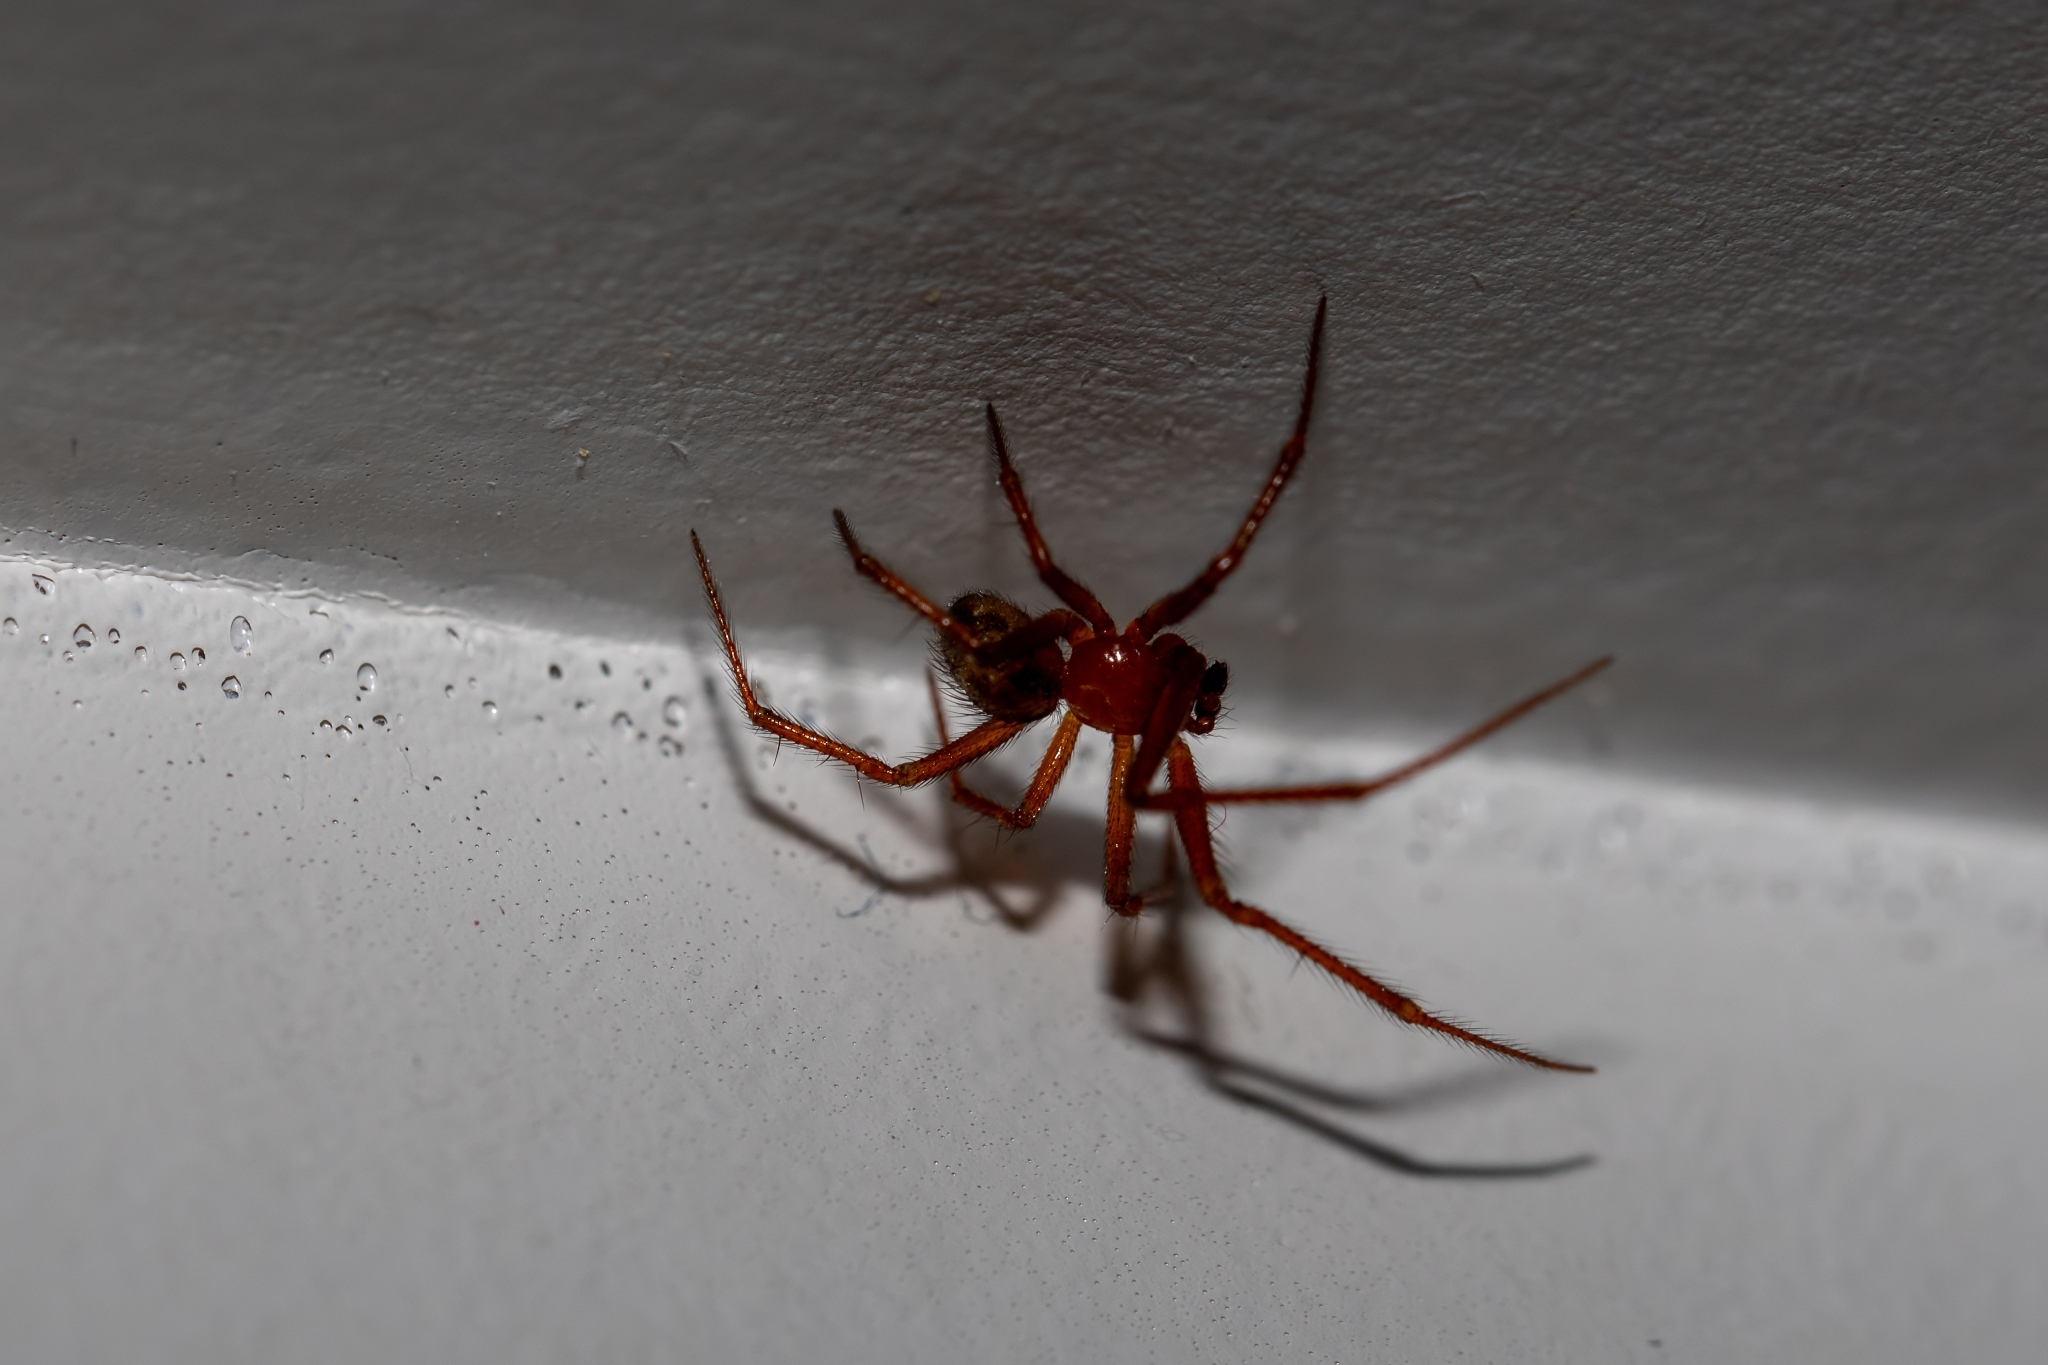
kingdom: Animalia
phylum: Arthropoda
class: Arachnida
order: Araneae
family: Theridiidae
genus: Nesticodes
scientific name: Nesticodes rufipes
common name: Cobweb spiders
